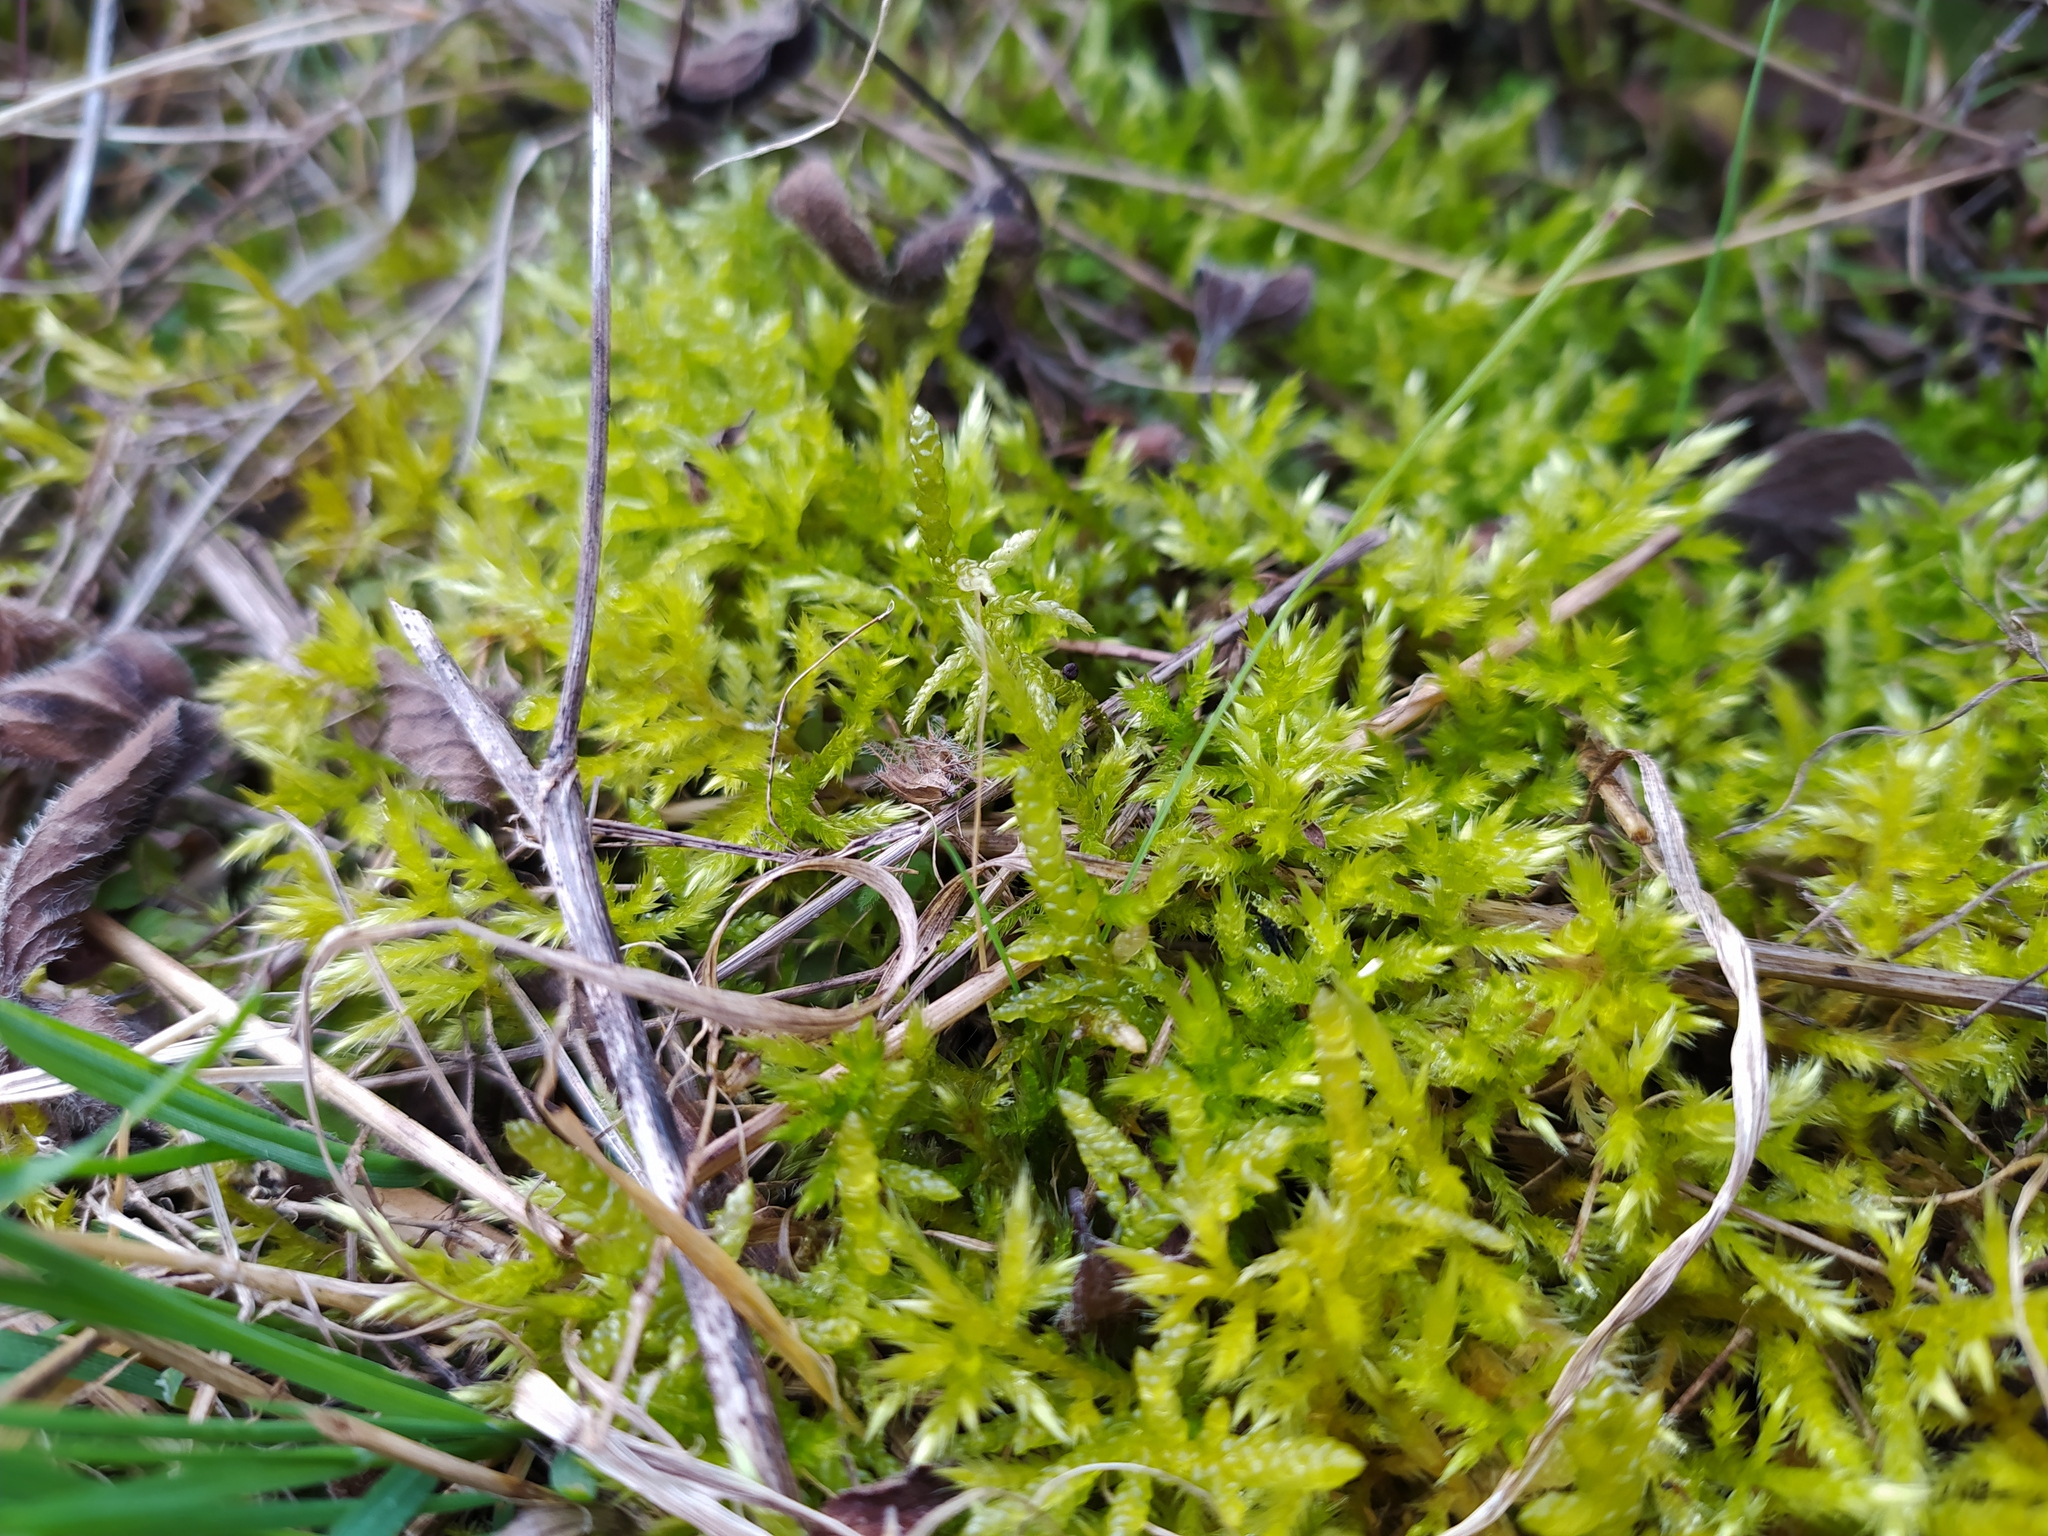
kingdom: Plantae
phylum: Bryophyta
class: Bryopsida
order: Hypnales
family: Brachytheciaceae
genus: Homalothecium
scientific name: Homalothecium lutescens
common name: Yellow feather-moss
